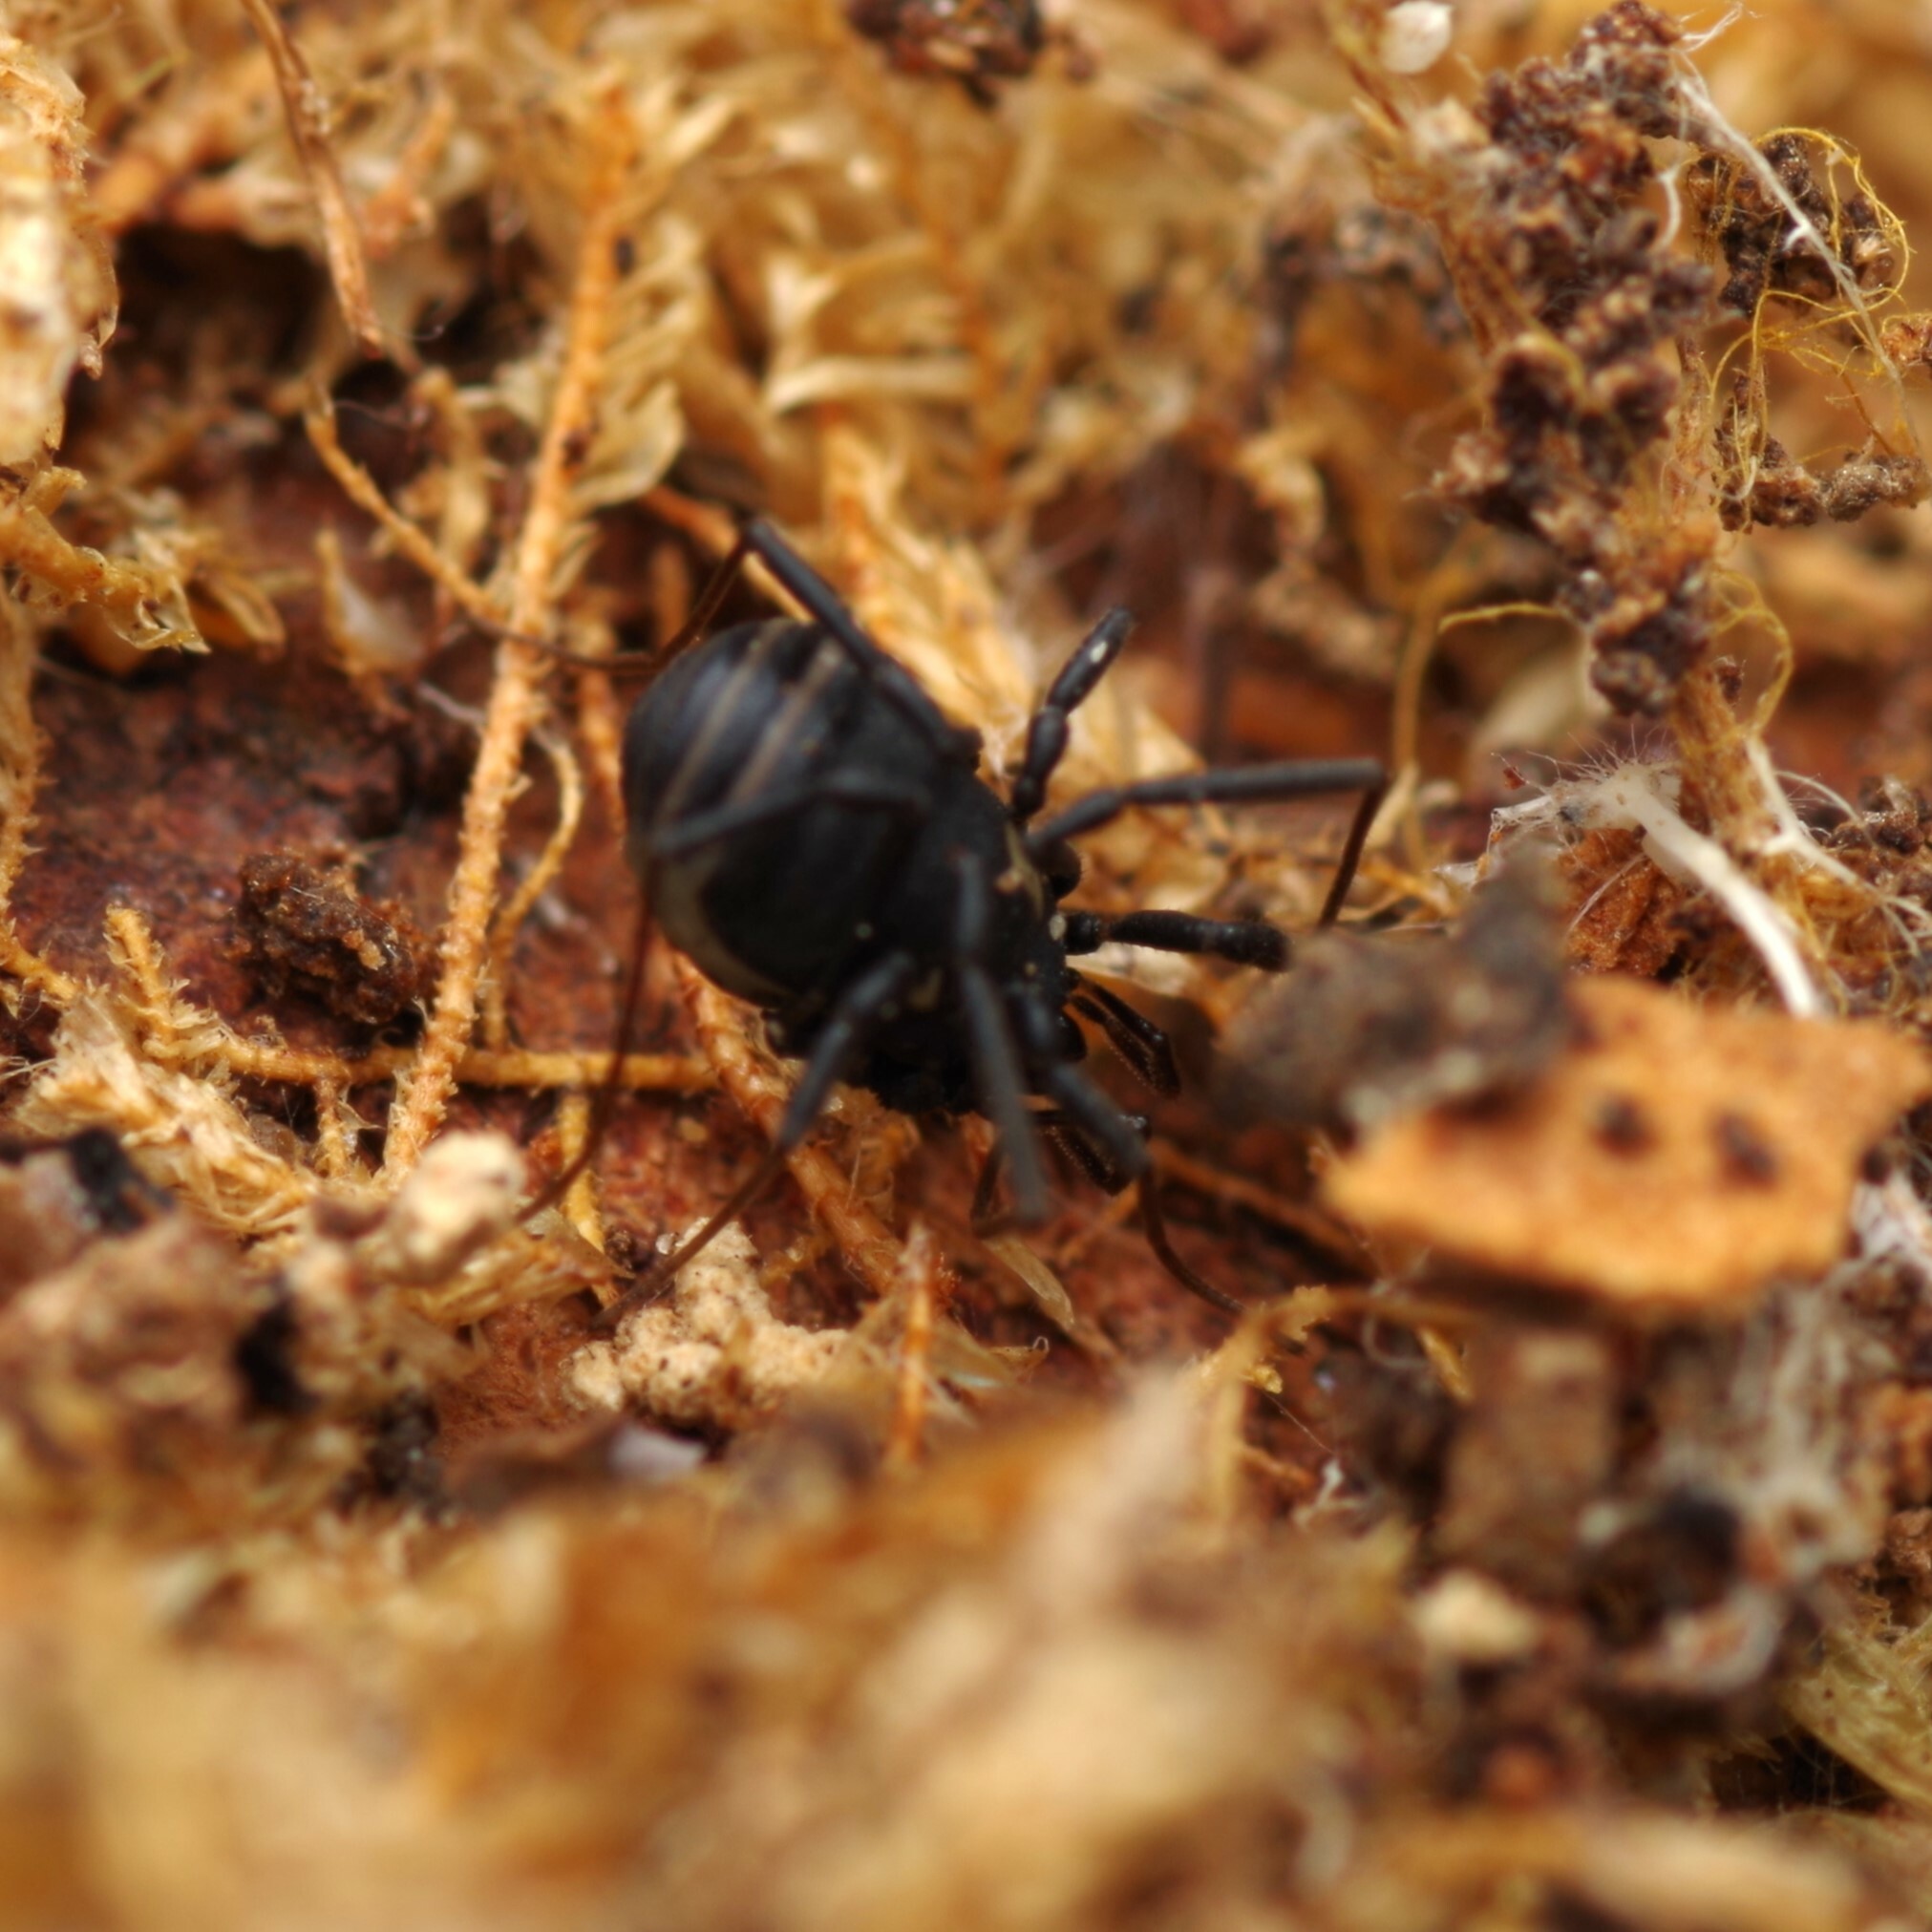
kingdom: Animalia
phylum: Arthropoda
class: Arachnida
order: Opiliones
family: Nemastomatidae
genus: Nemastoma
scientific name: Nemastoma bimaculatum
